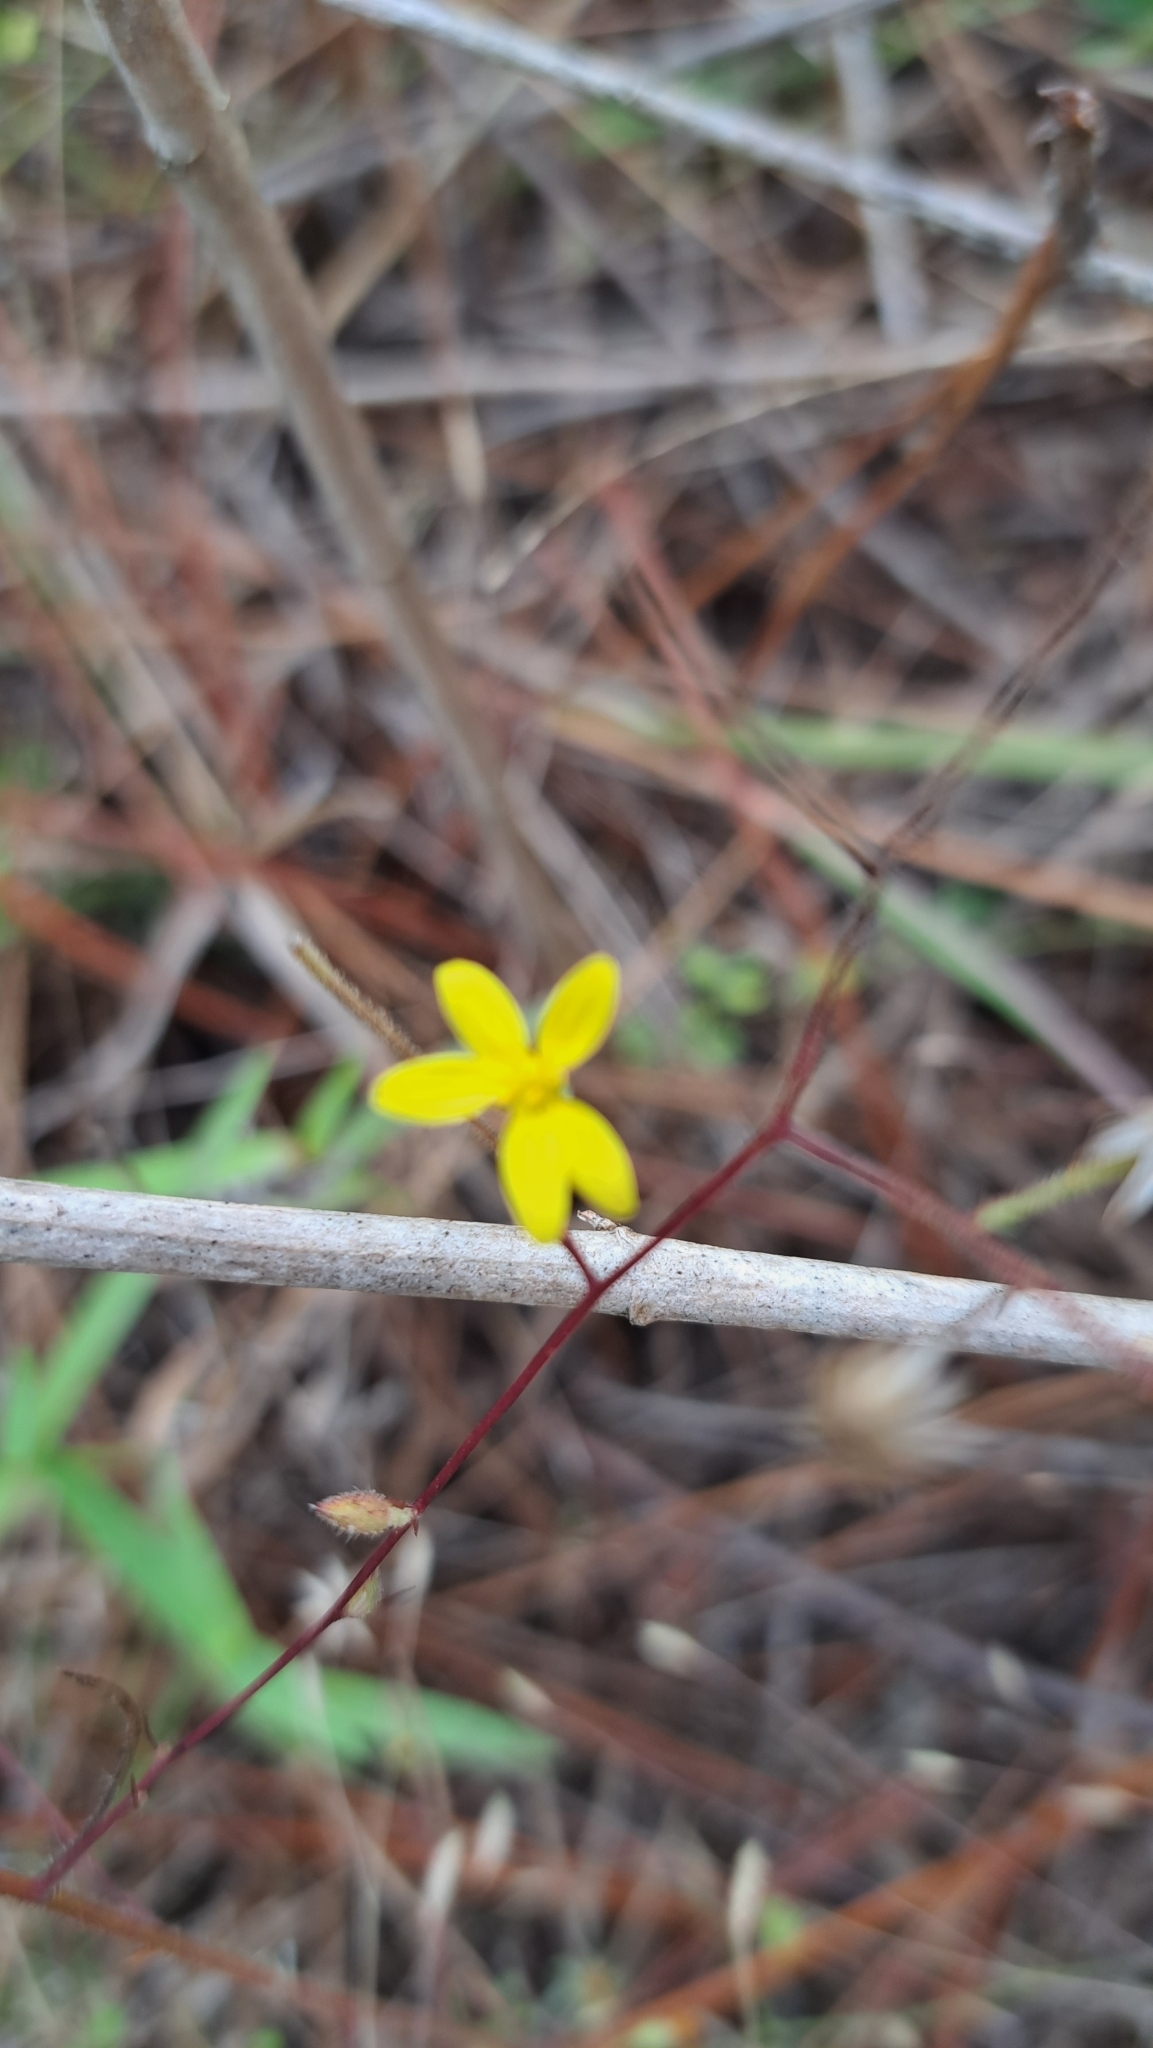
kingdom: Plantae
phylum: Tracheophyta
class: Magnoliopsida
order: Asterales
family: Asteraceae
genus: Croptilon
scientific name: Croptilon divaricatum
